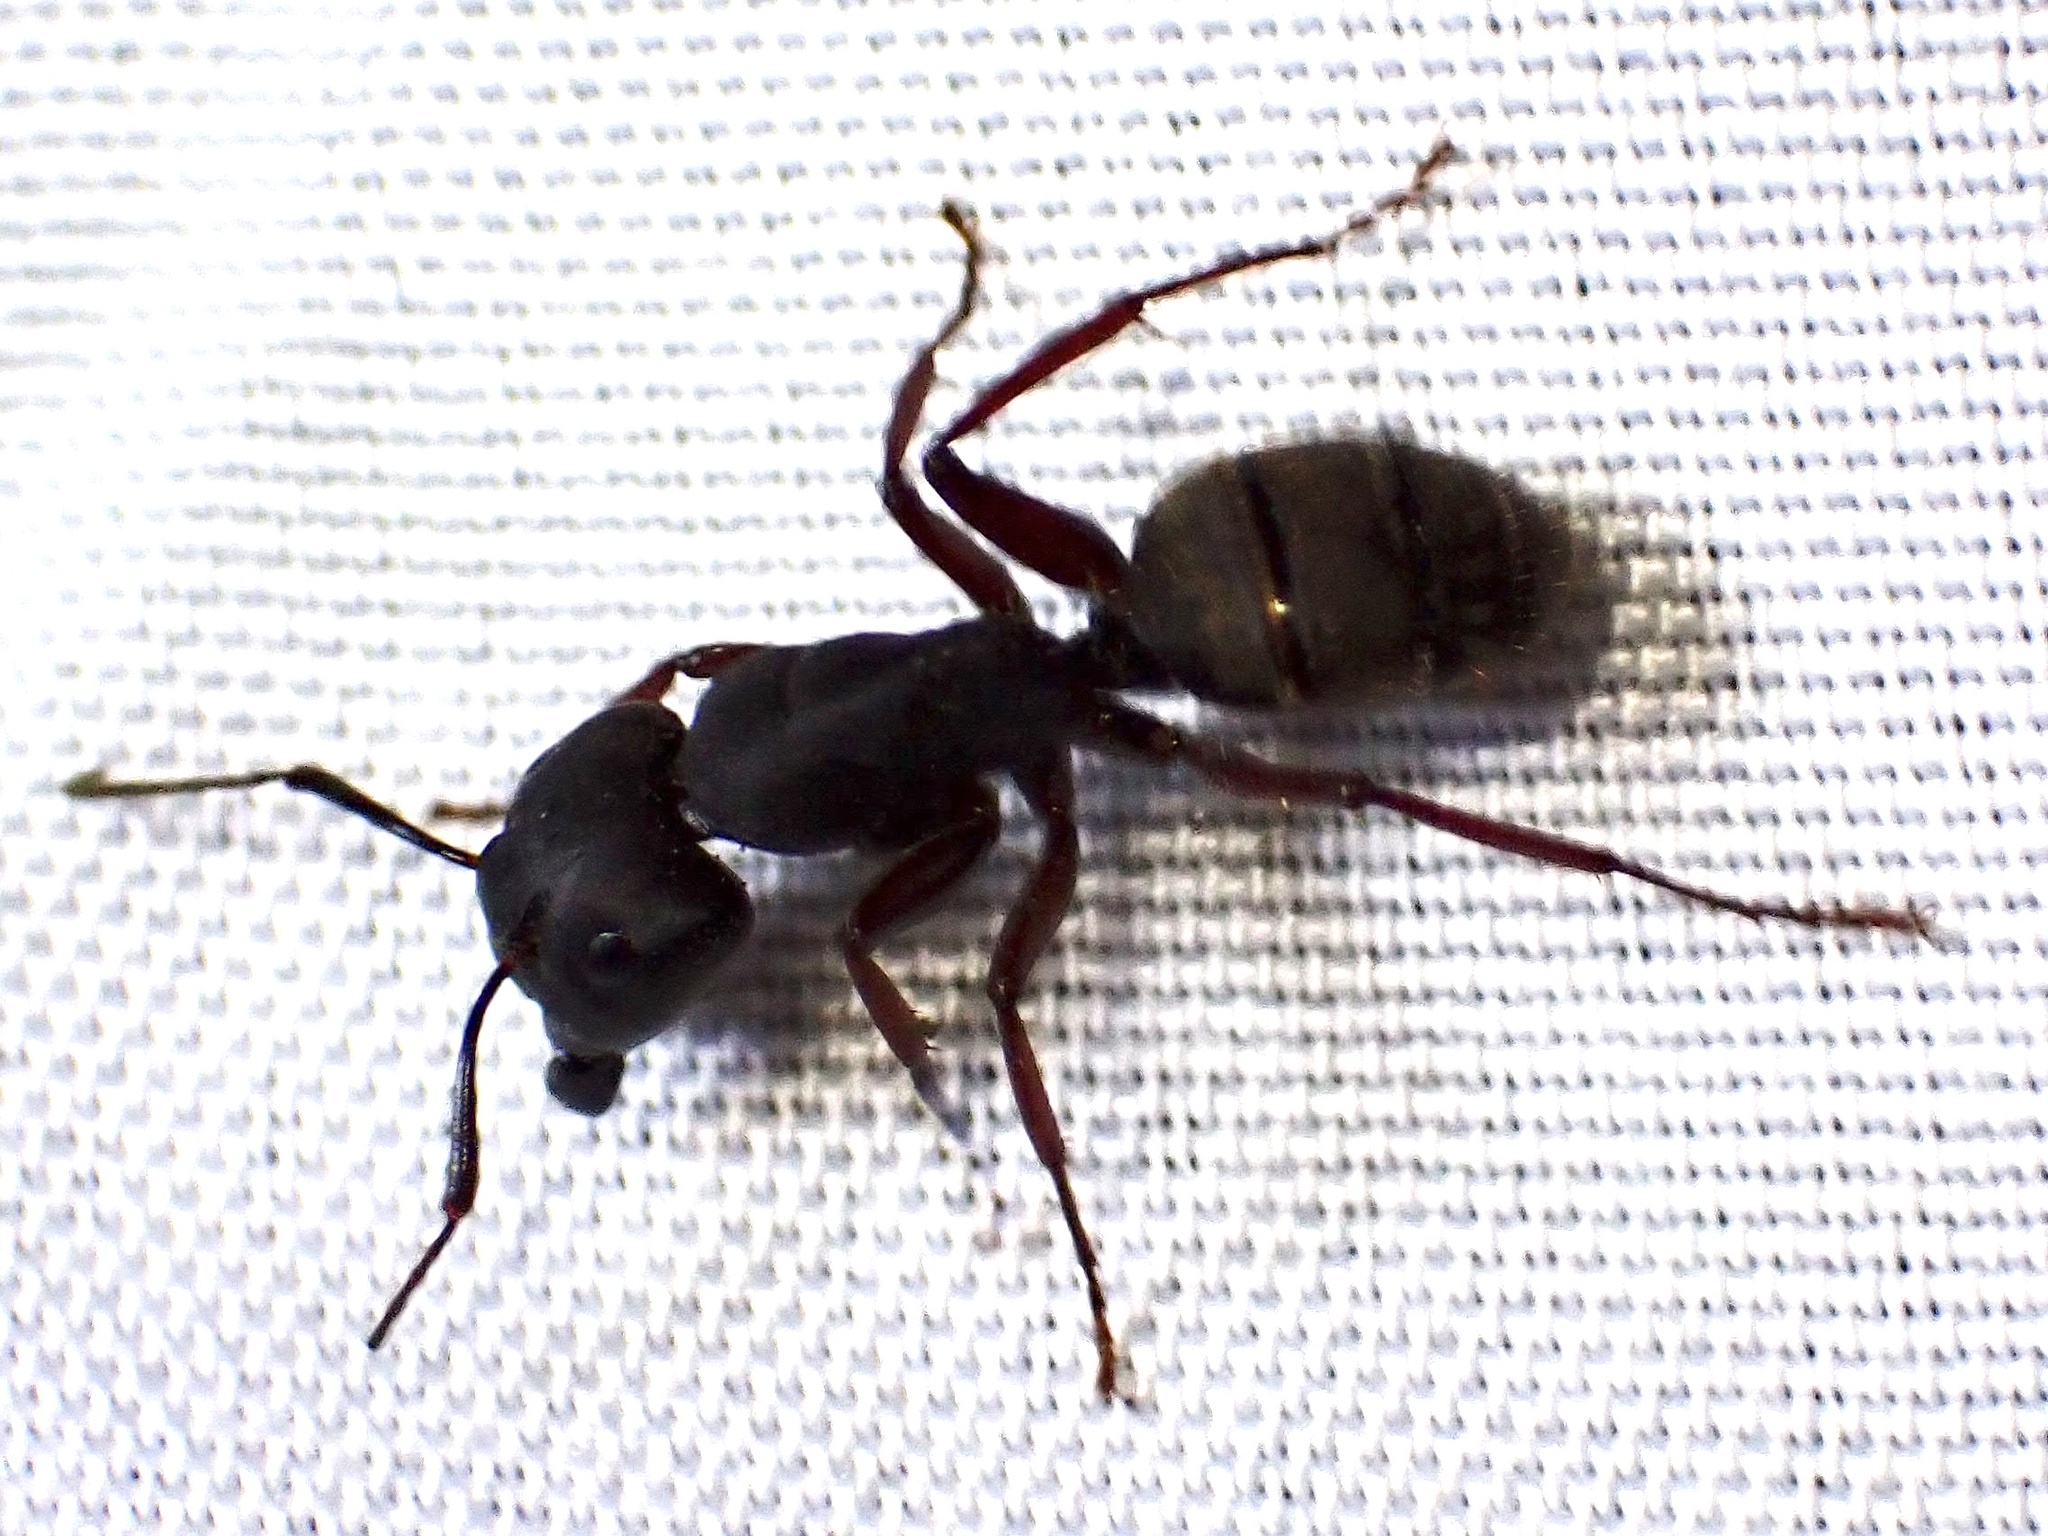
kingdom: Animalia
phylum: Arthropoda
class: Insecta
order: Hymenoptera
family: Formicidae
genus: Camponotus
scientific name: Camponotus modoc
